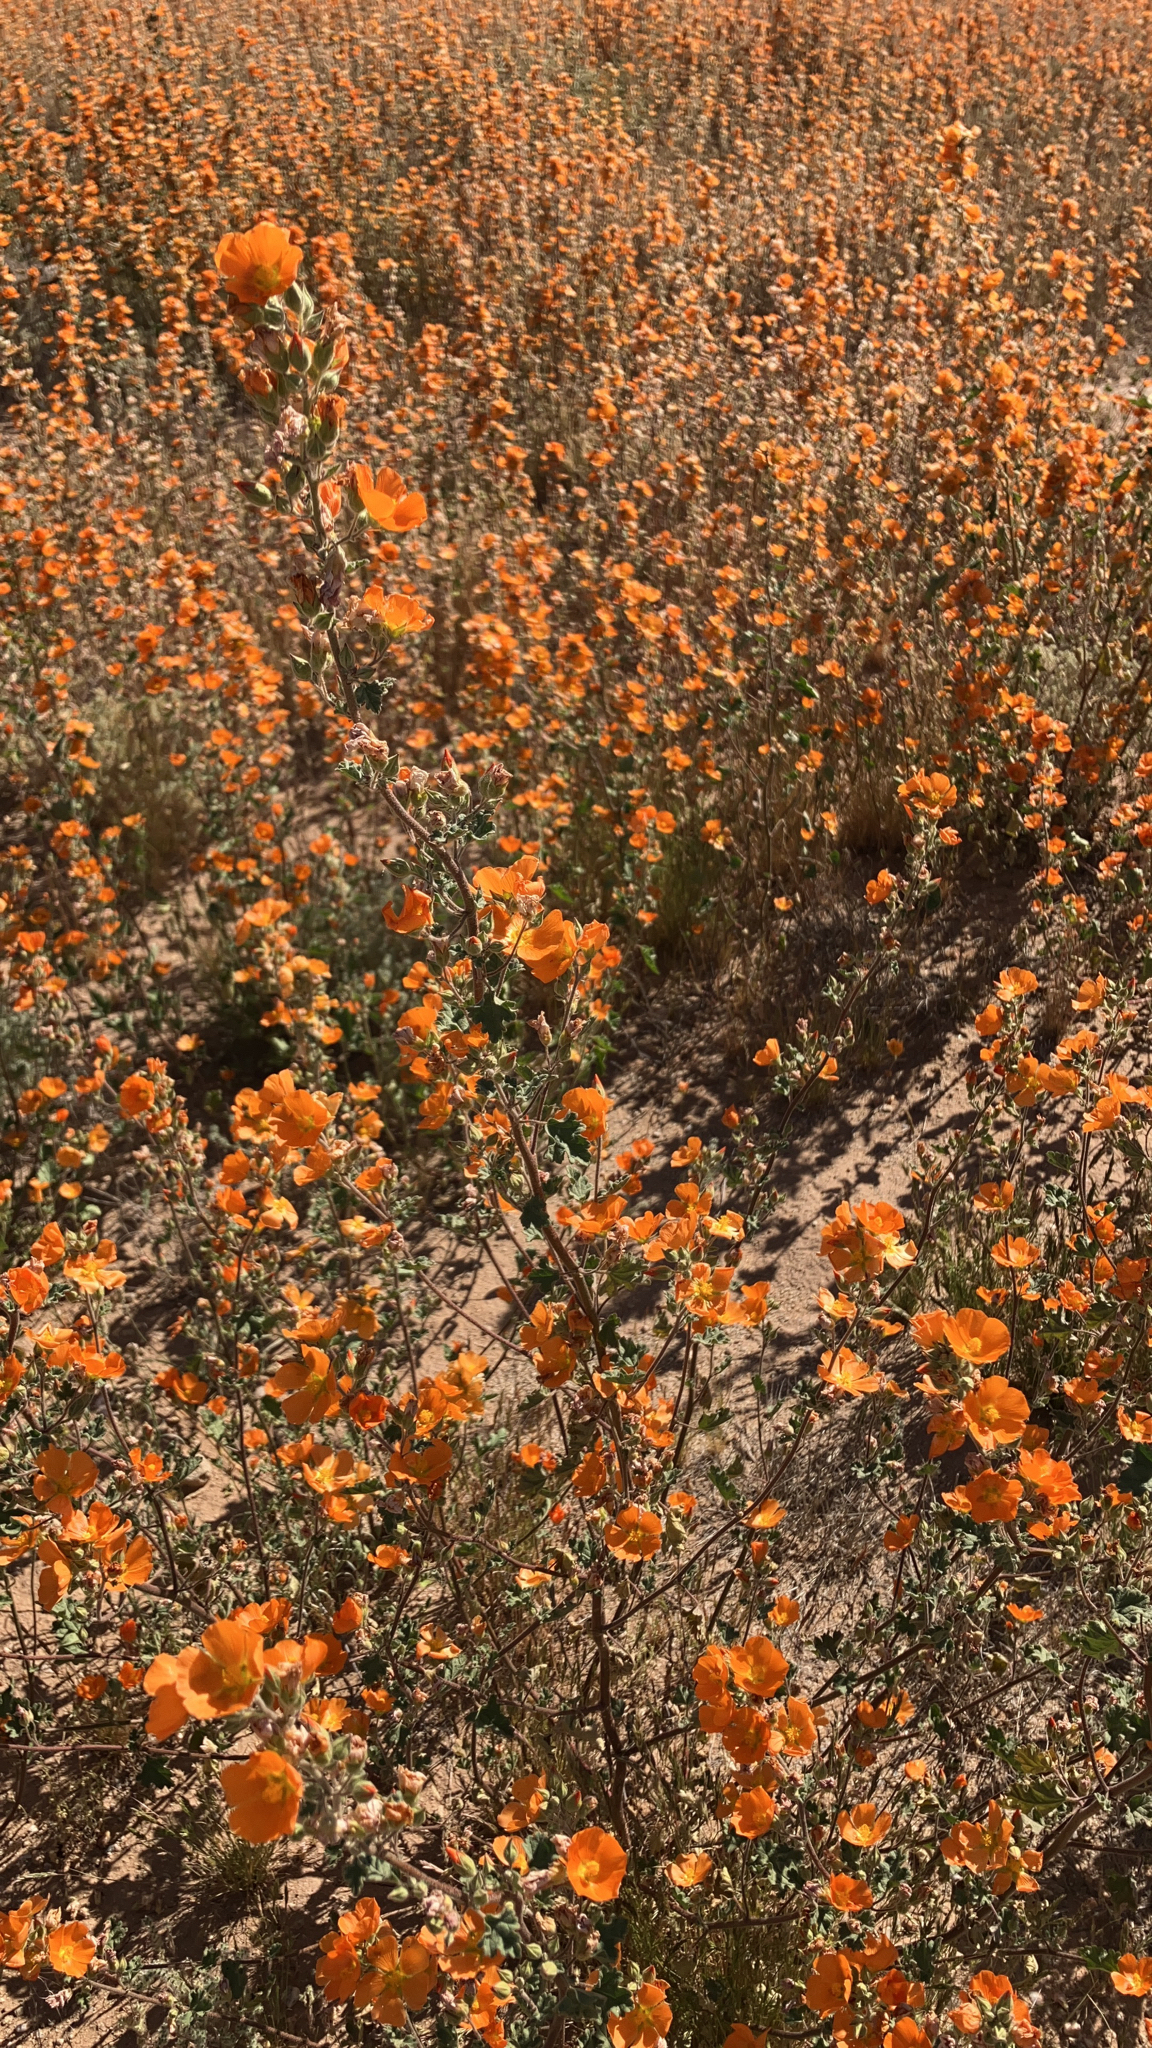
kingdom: Plantae
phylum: Tracheophyta
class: Magnoliopsida
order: Malvales
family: Malvaceae
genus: Sphaeralcea
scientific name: Sphaeralcea coulteri
